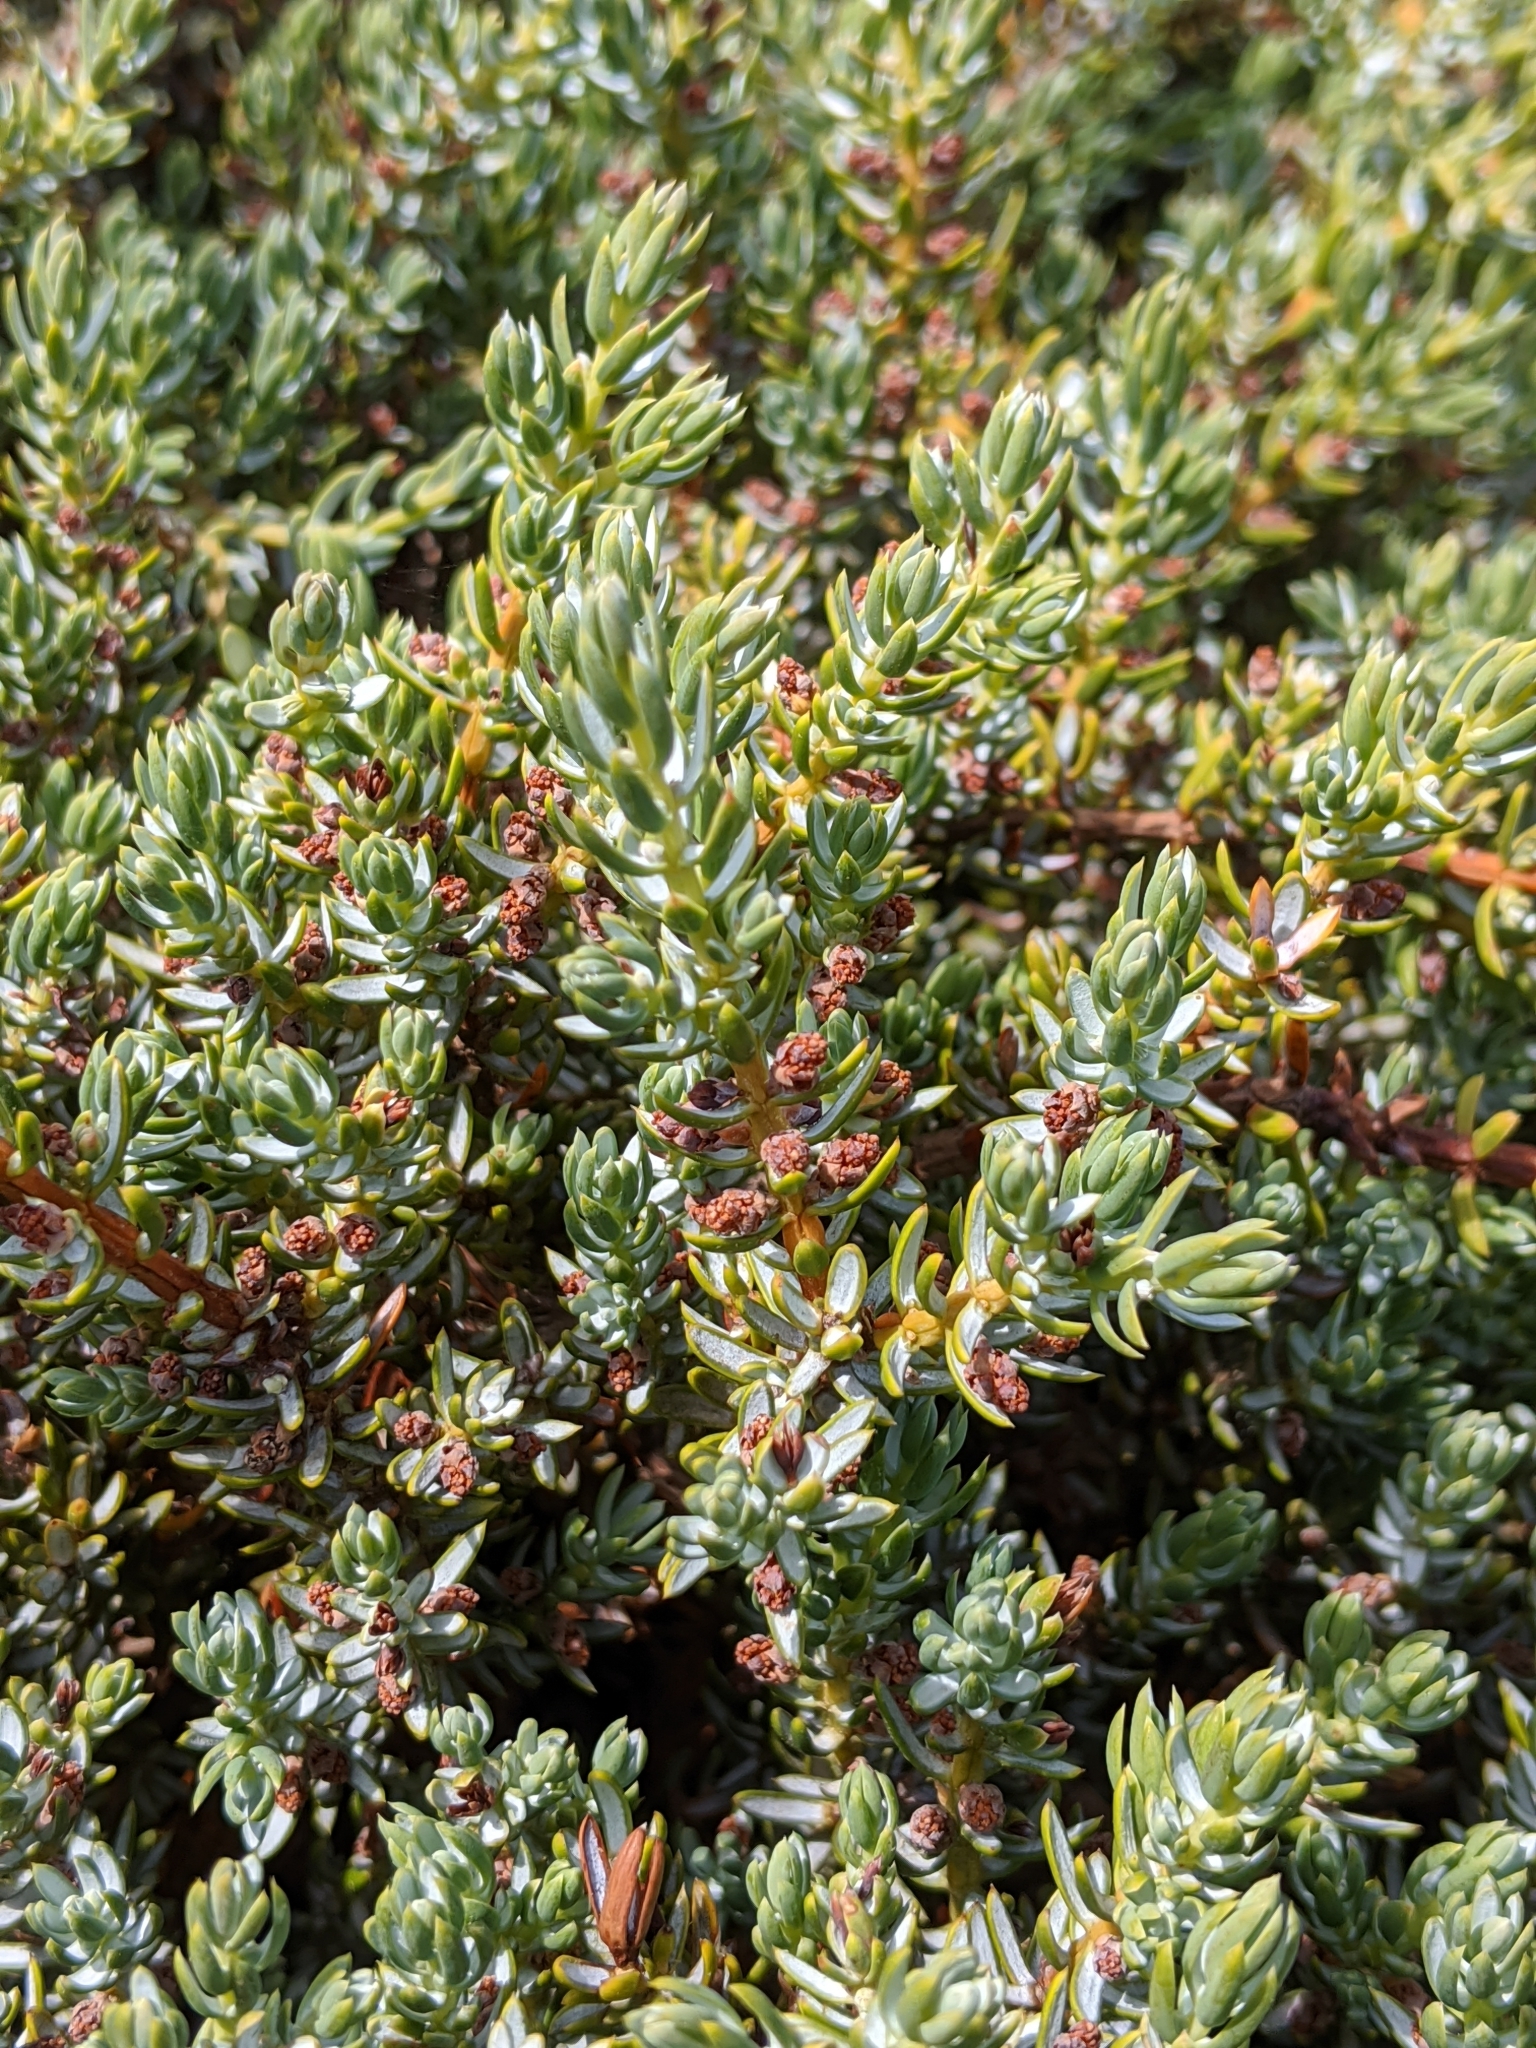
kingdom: Plantae
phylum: Tracheophyta
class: Pinopsida
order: Pinales
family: Cupressaceae
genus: Juniperus
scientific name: Juniperus communis
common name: Common juniper
